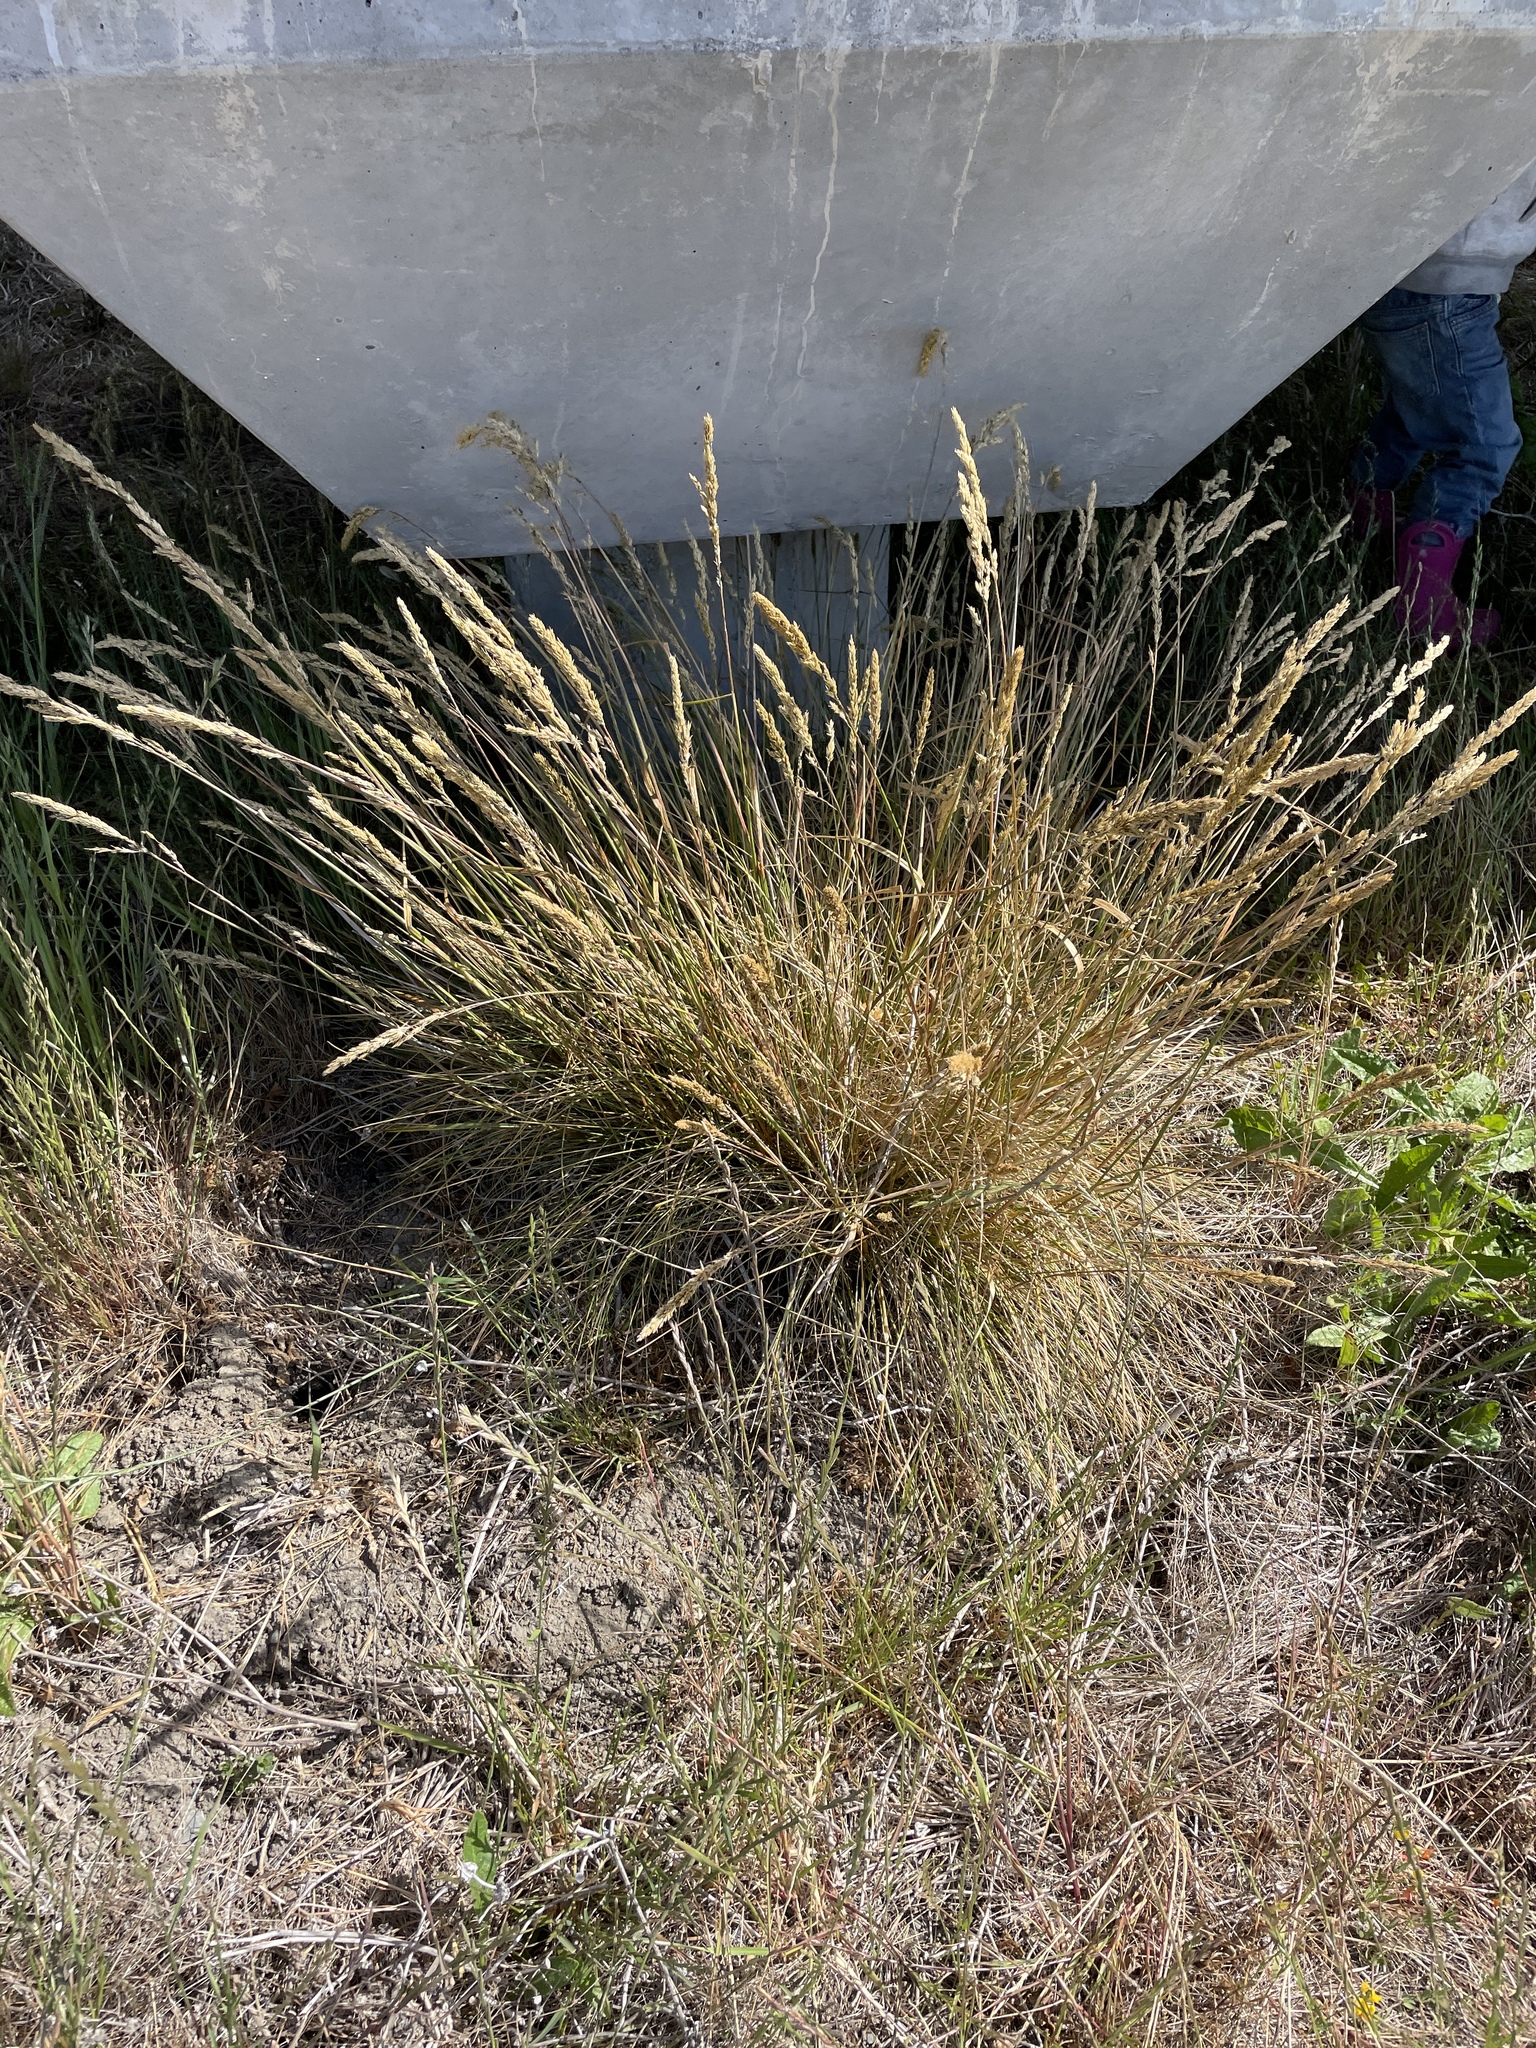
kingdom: Plantae
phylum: Tracheophyta
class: Liliopsida
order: Poales
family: Poaceae
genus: Deschampsia
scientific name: Deschampsia cespitosa
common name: Tufted hair-grass
